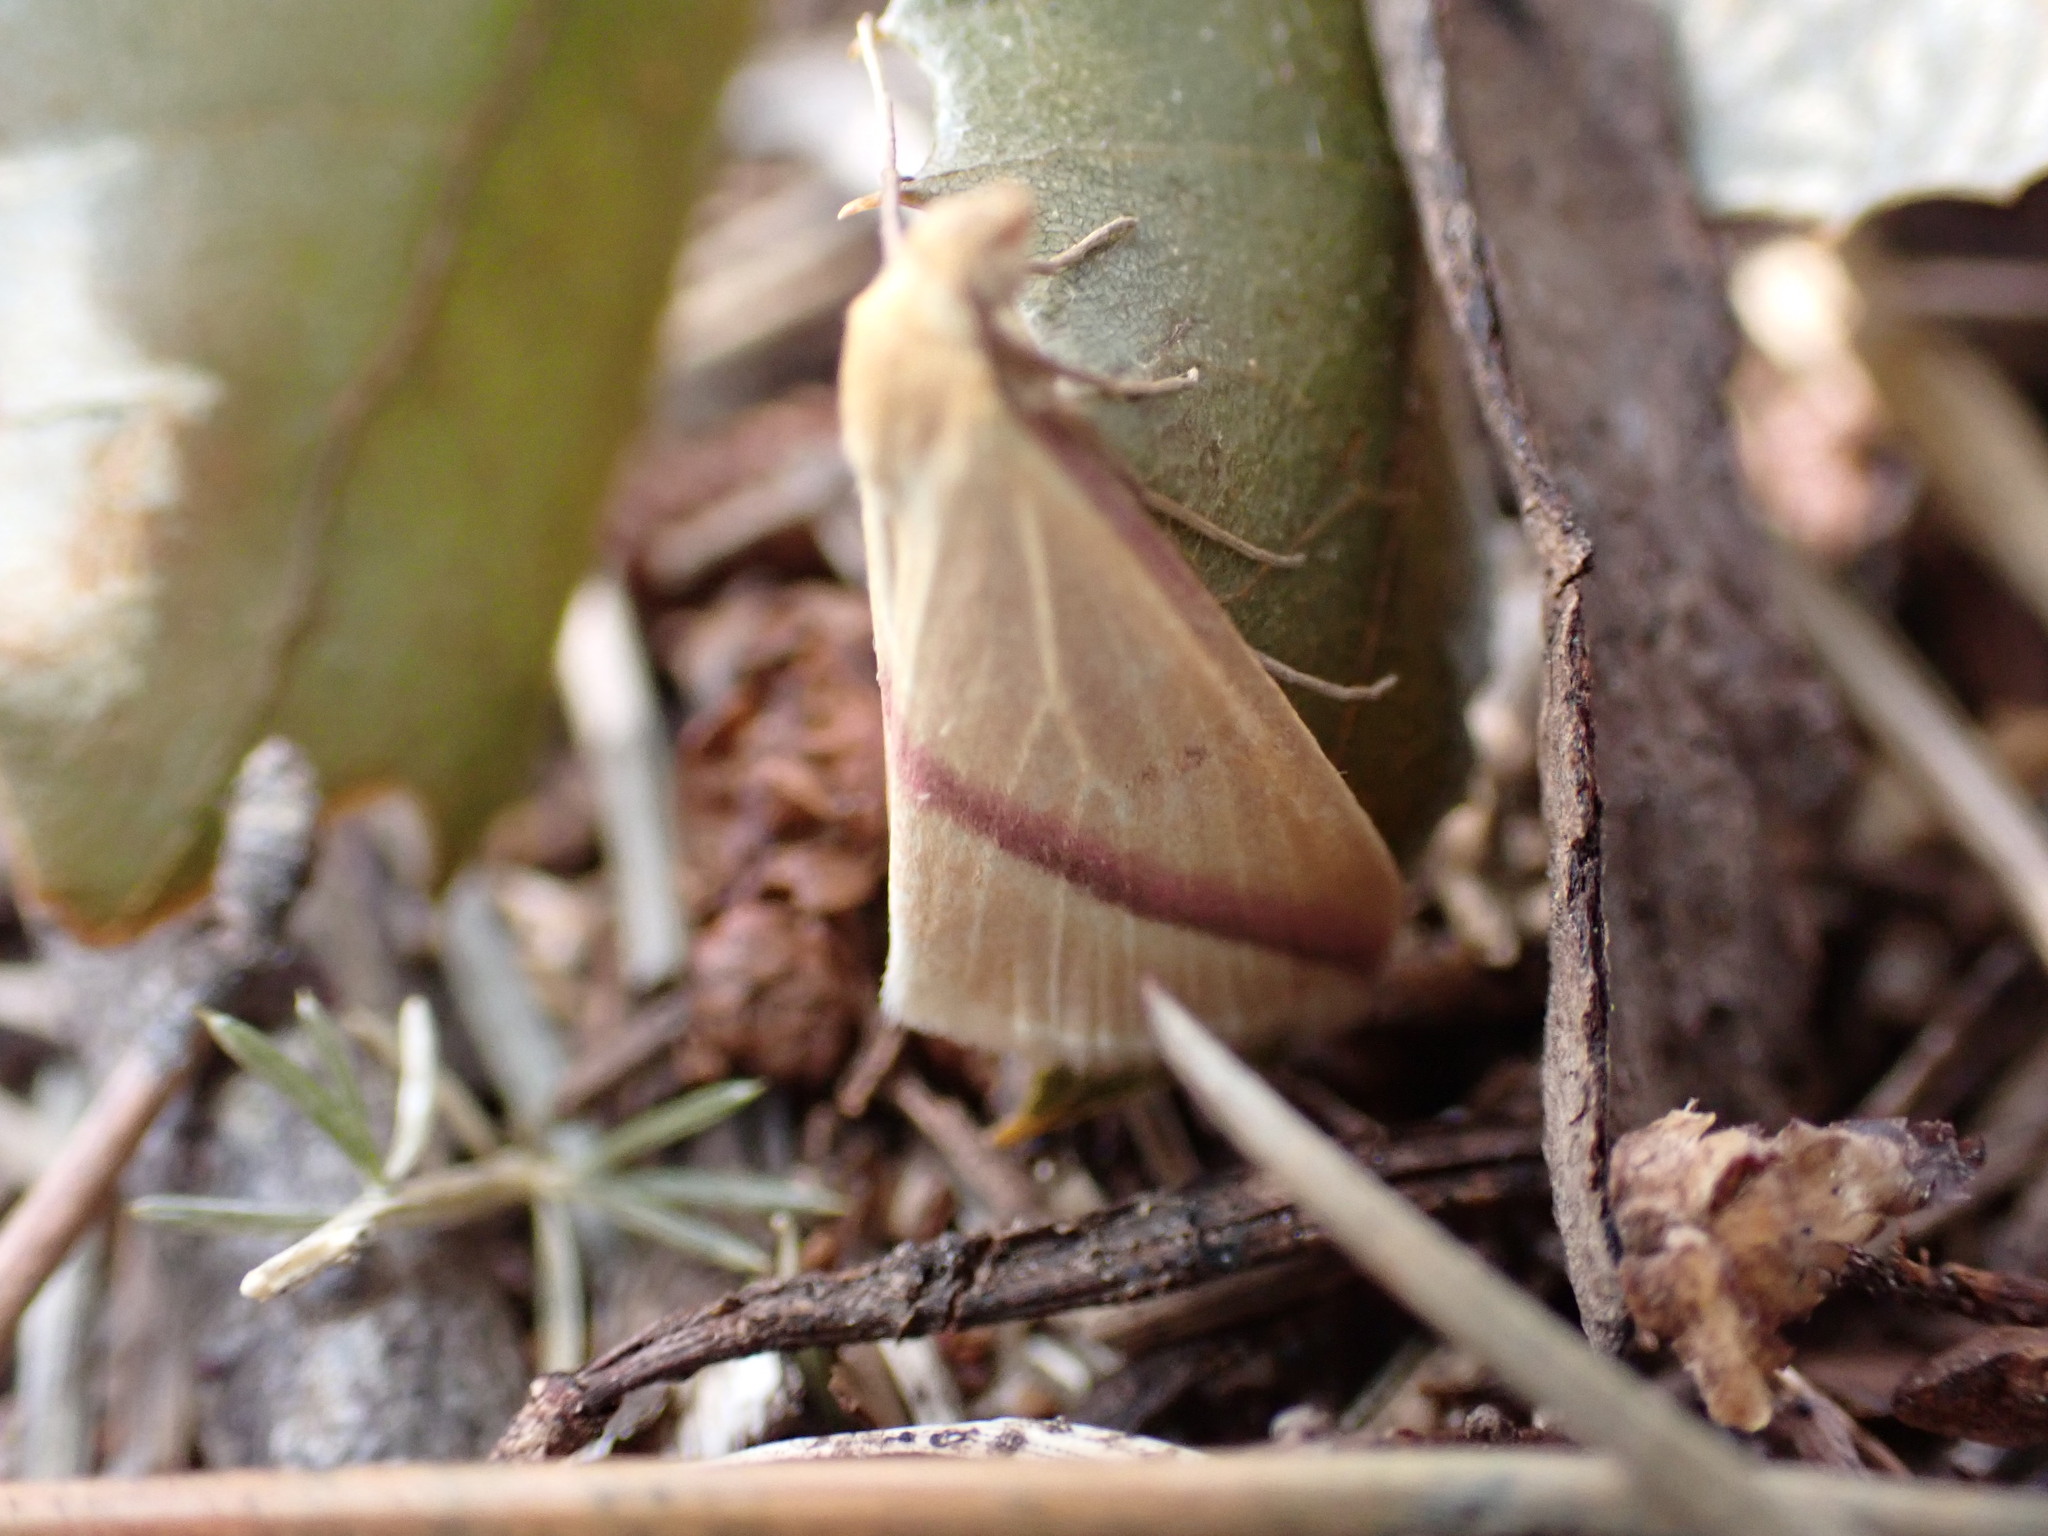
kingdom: Animalia
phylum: Arthropoda
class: Insecta
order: Lepidoptera
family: Geometridae
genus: Rhodometra
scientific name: Rhodometra sacraria
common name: Vestal
